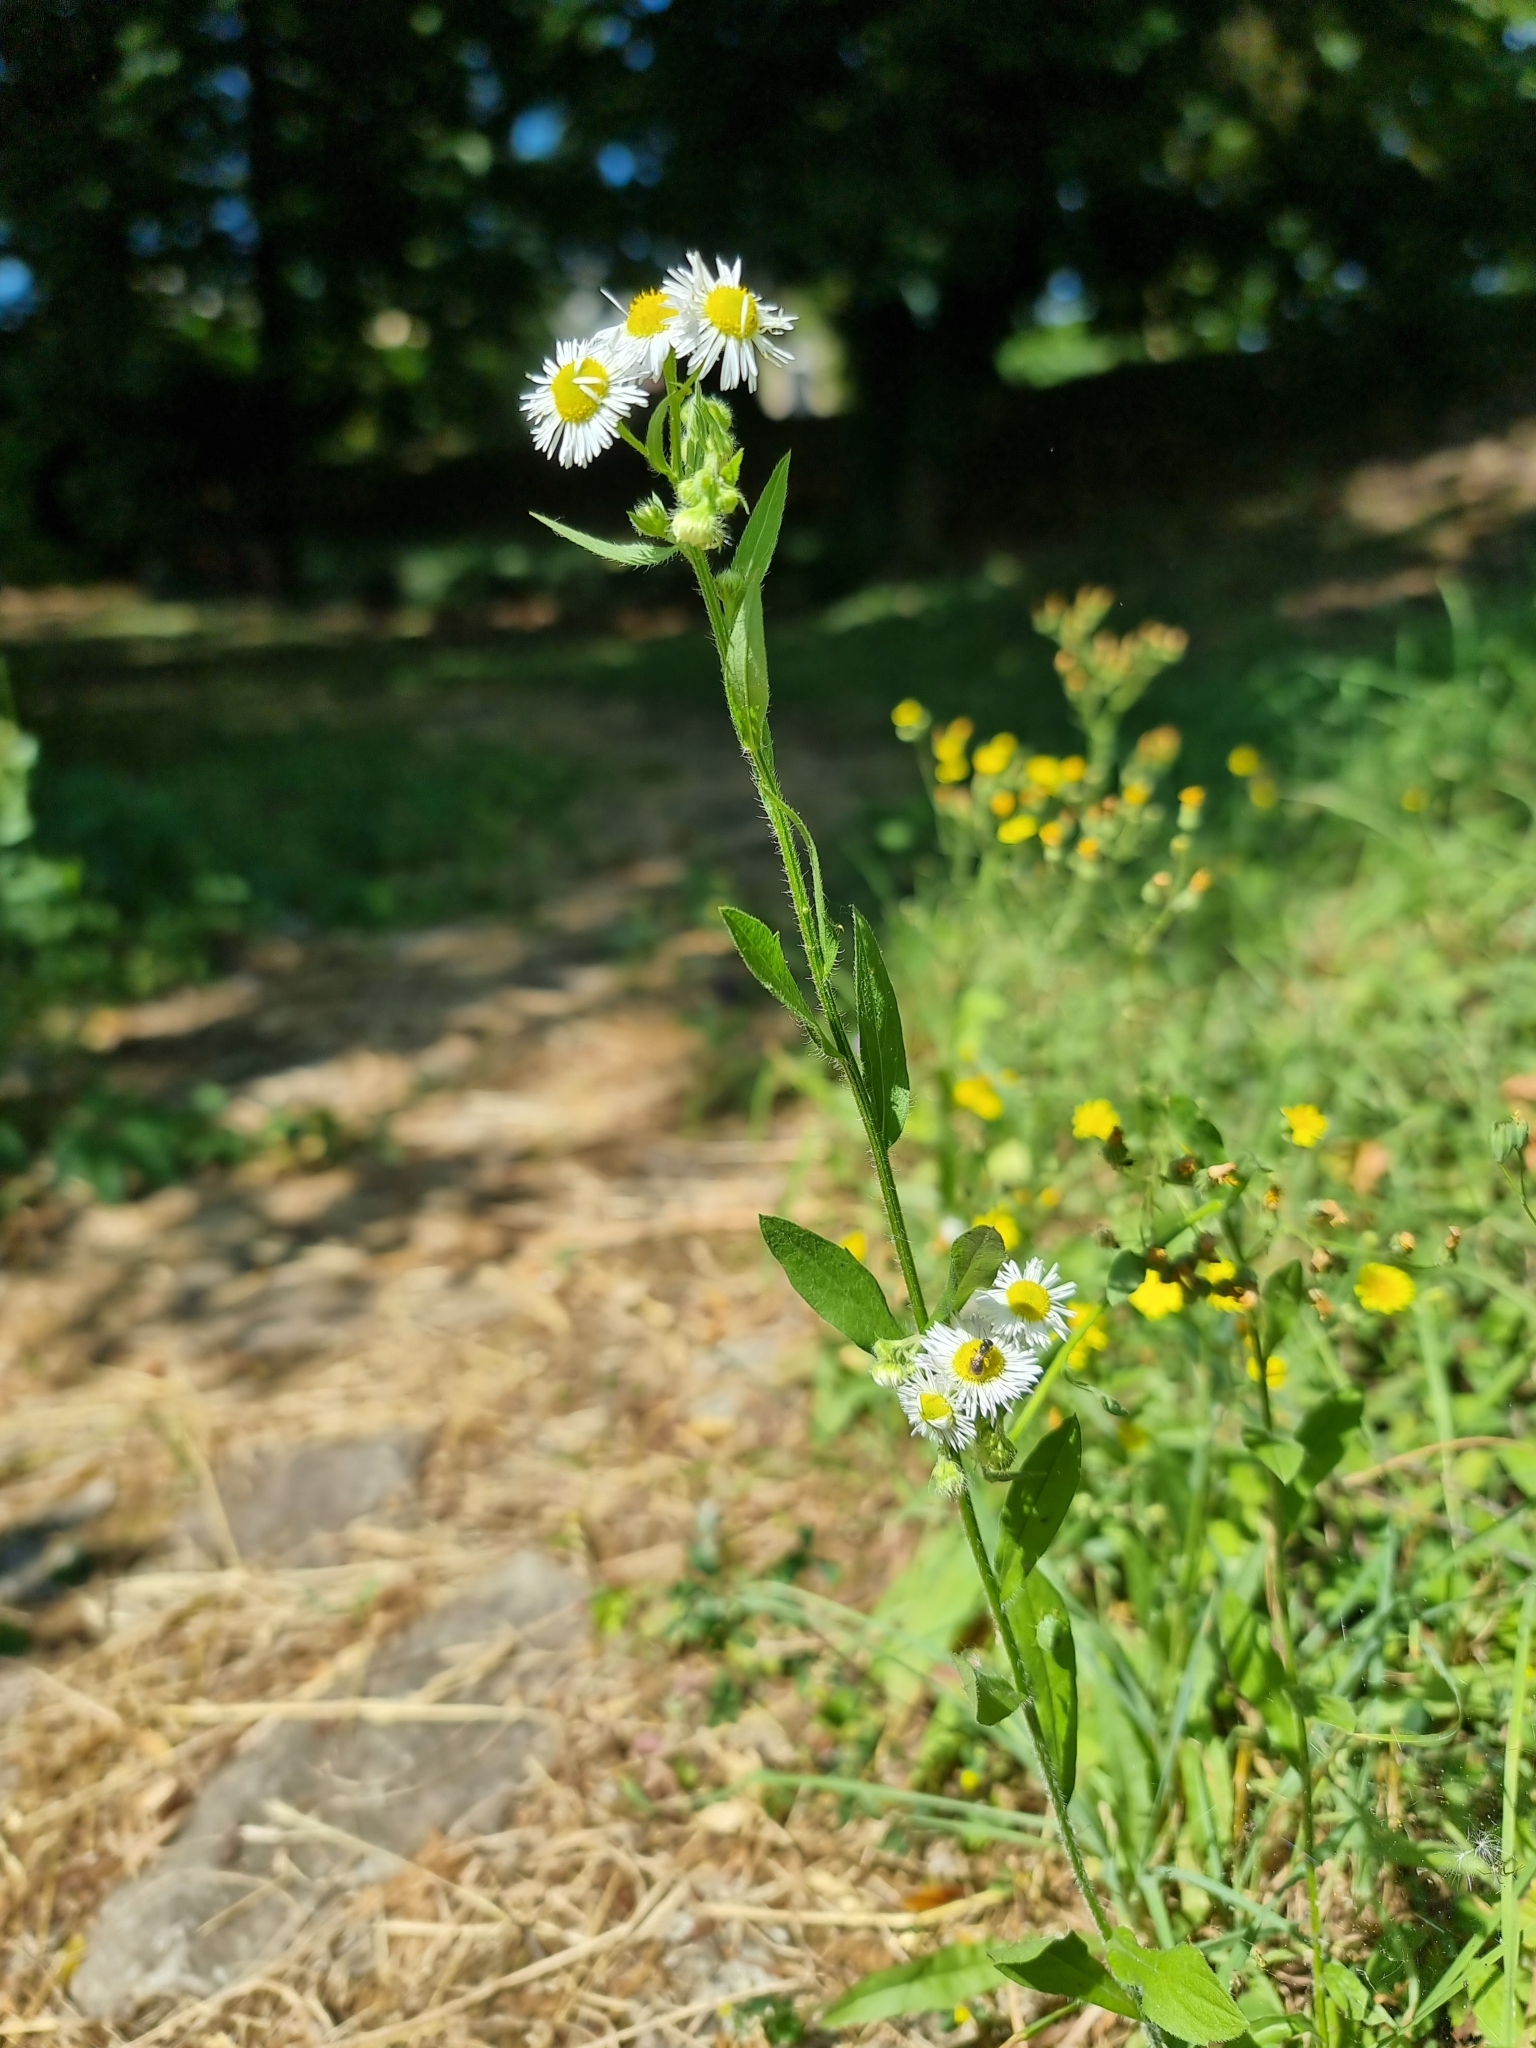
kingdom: Plantae
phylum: Tracheophyta
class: Magnoliopsida
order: Asterales
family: Asteraceae
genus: Erigeron
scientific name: Erigeron annuus
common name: Tall fleabane
